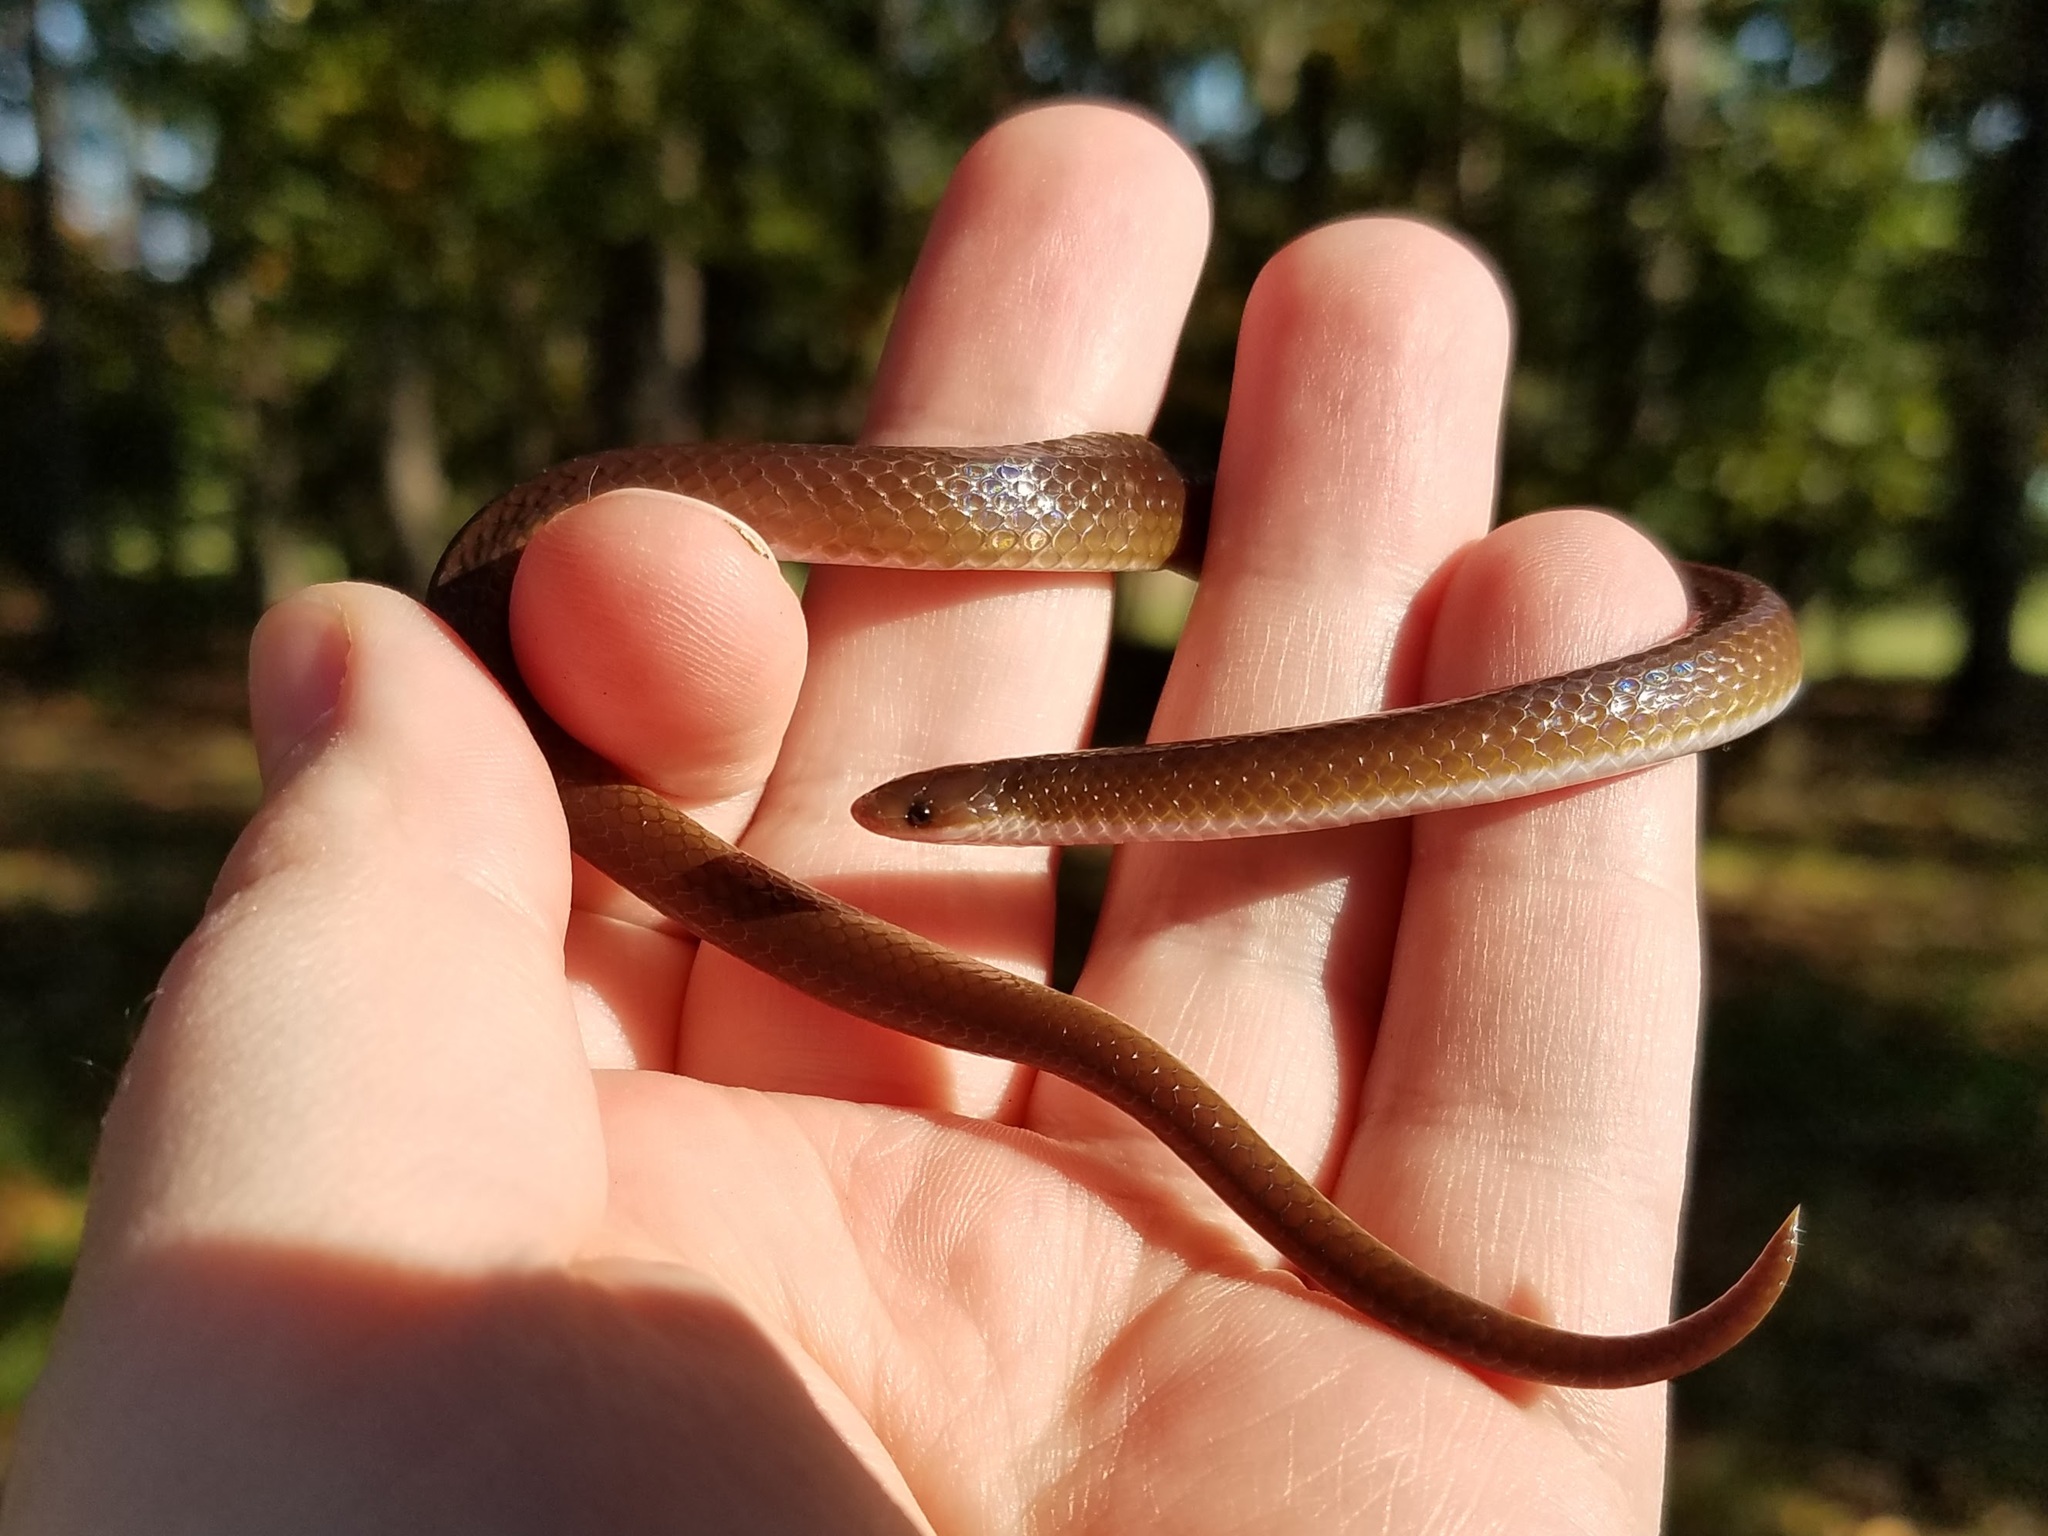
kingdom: Animalia
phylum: Chordata
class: Squamata
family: Colubridae
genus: Carphophis
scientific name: Carphophis amoenus
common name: Eastern worm snake
